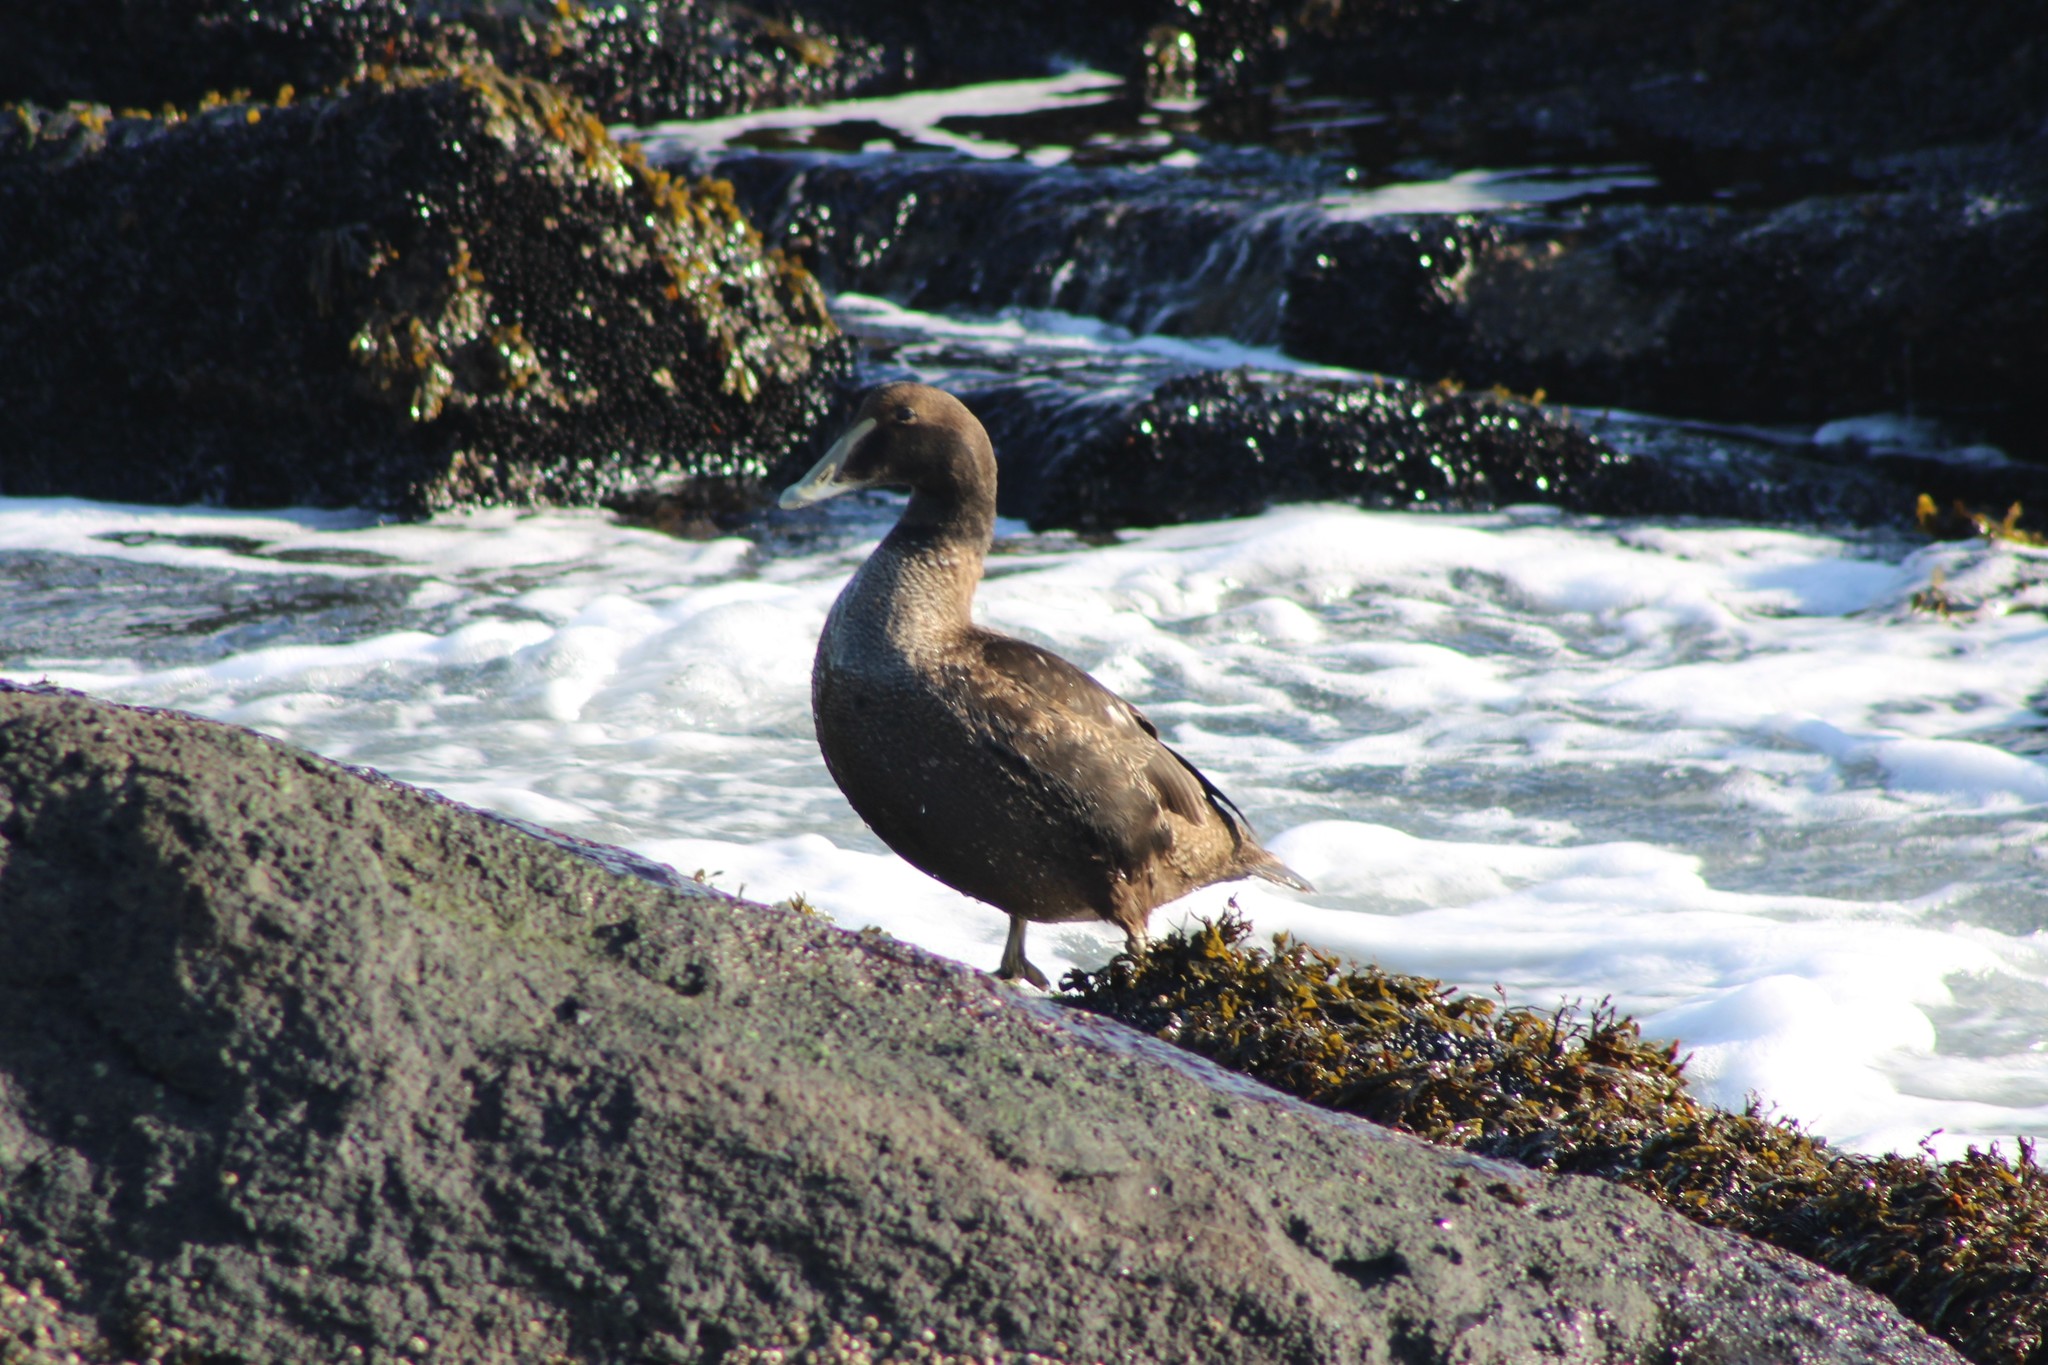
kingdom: Animalia
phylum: Chordata
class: Aves
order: Anseriformes
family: Anatidae
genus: Somateria
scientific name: Somateria mollissima
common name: Common eider
